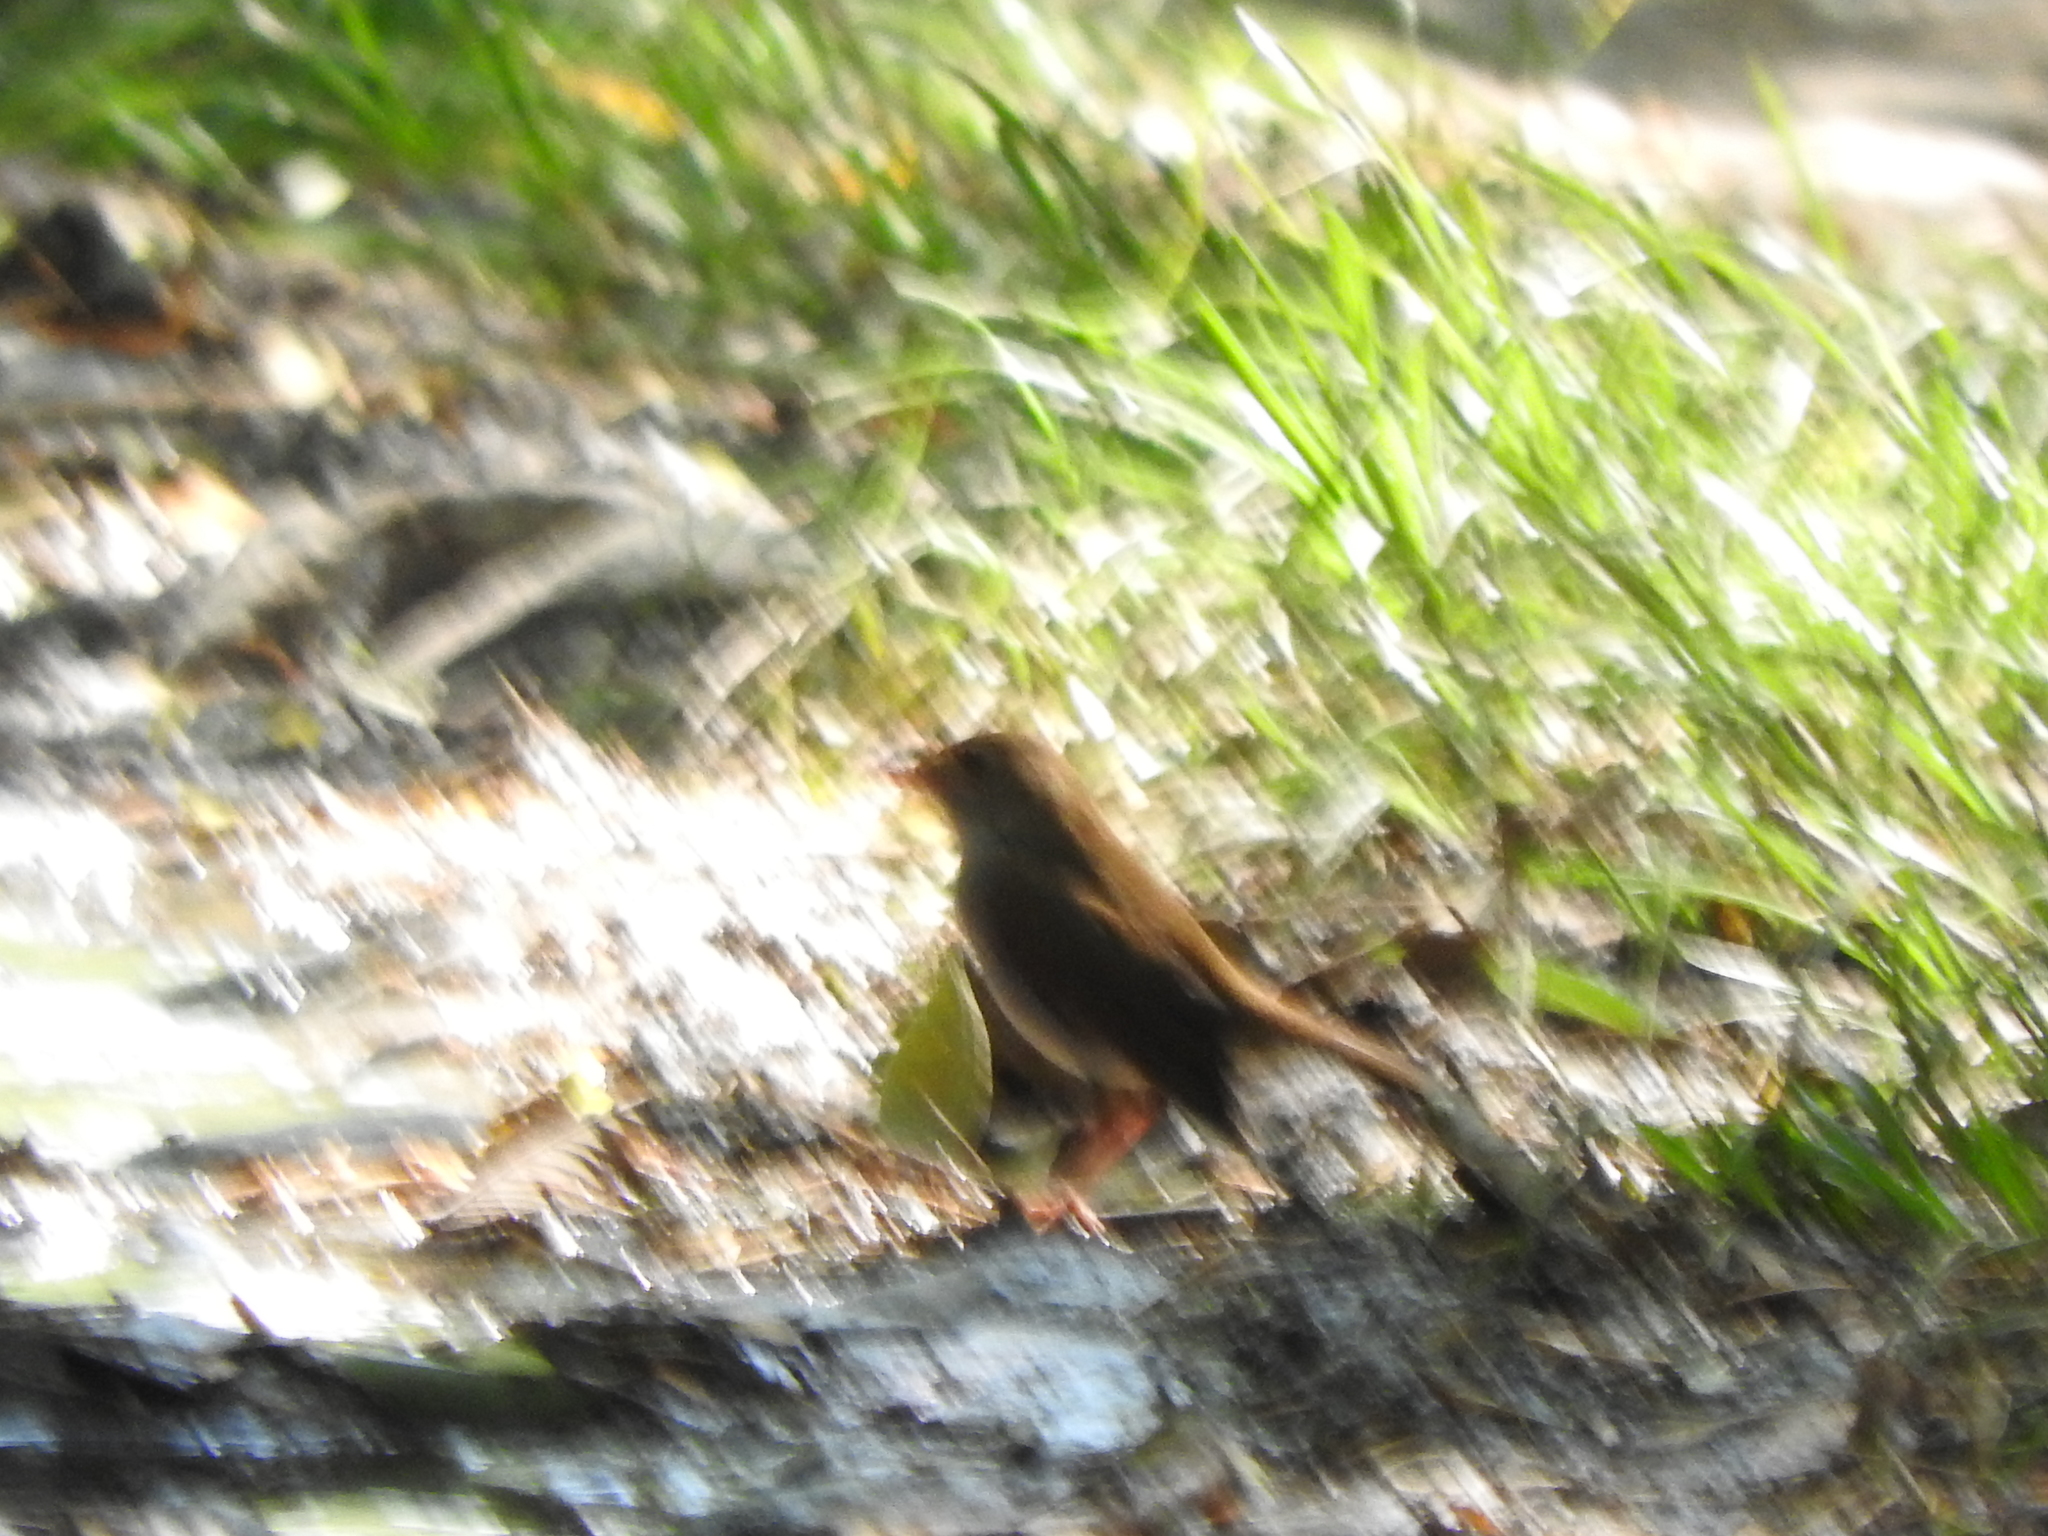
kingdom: Animalia
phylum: Chordata
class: Aves
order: Passeriformes
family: Turdidae
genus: Catharus
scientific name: Catharus aurantiirostris
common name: Orange-billed nightingale-thrush
